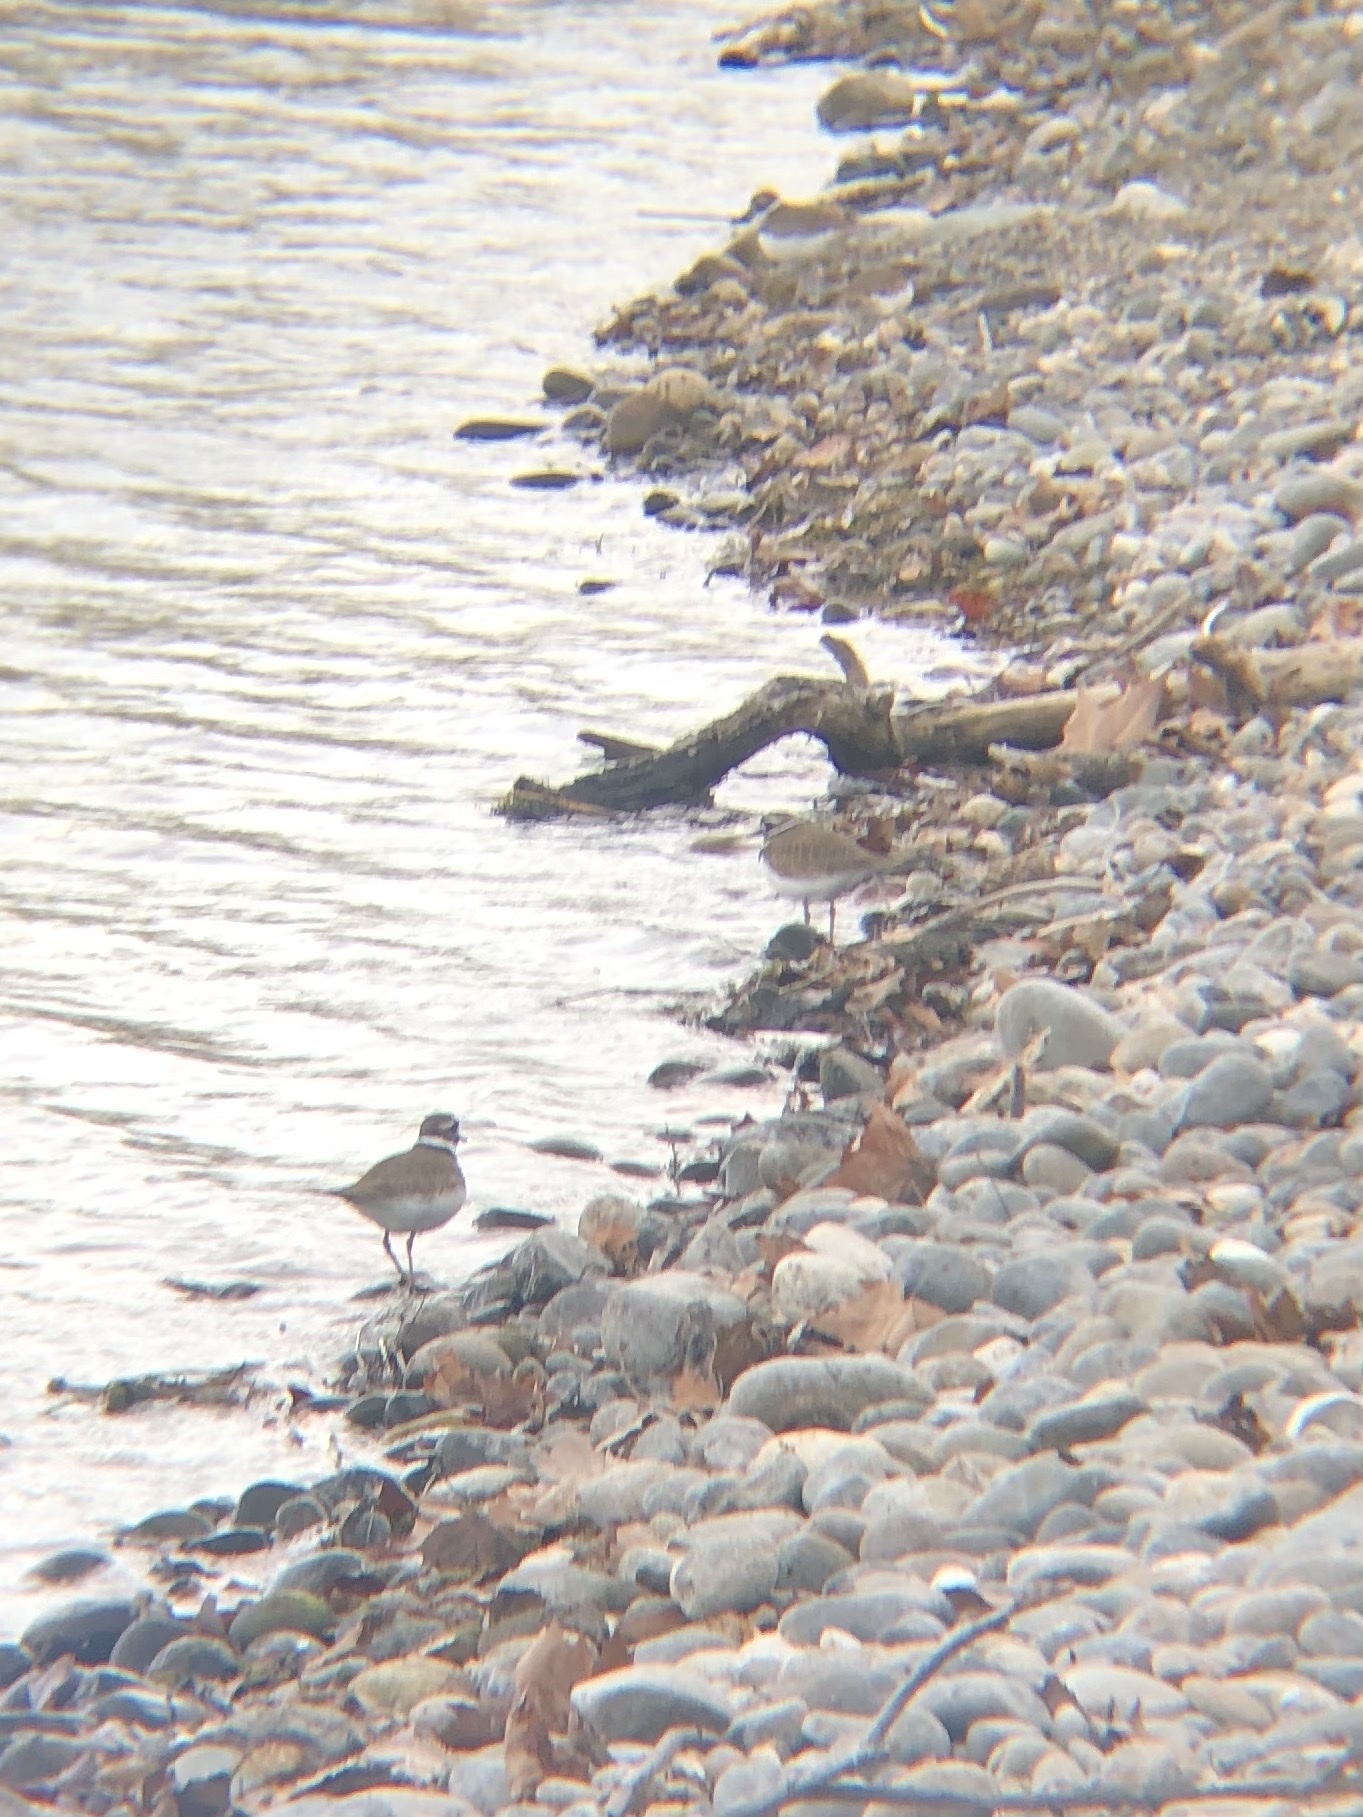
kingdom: Animalia
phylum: Chordata
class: Aves
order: Charadriiformes
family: Charadriidae
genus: Charadrius
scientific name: Charadrius vociferus
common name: Killdeer
